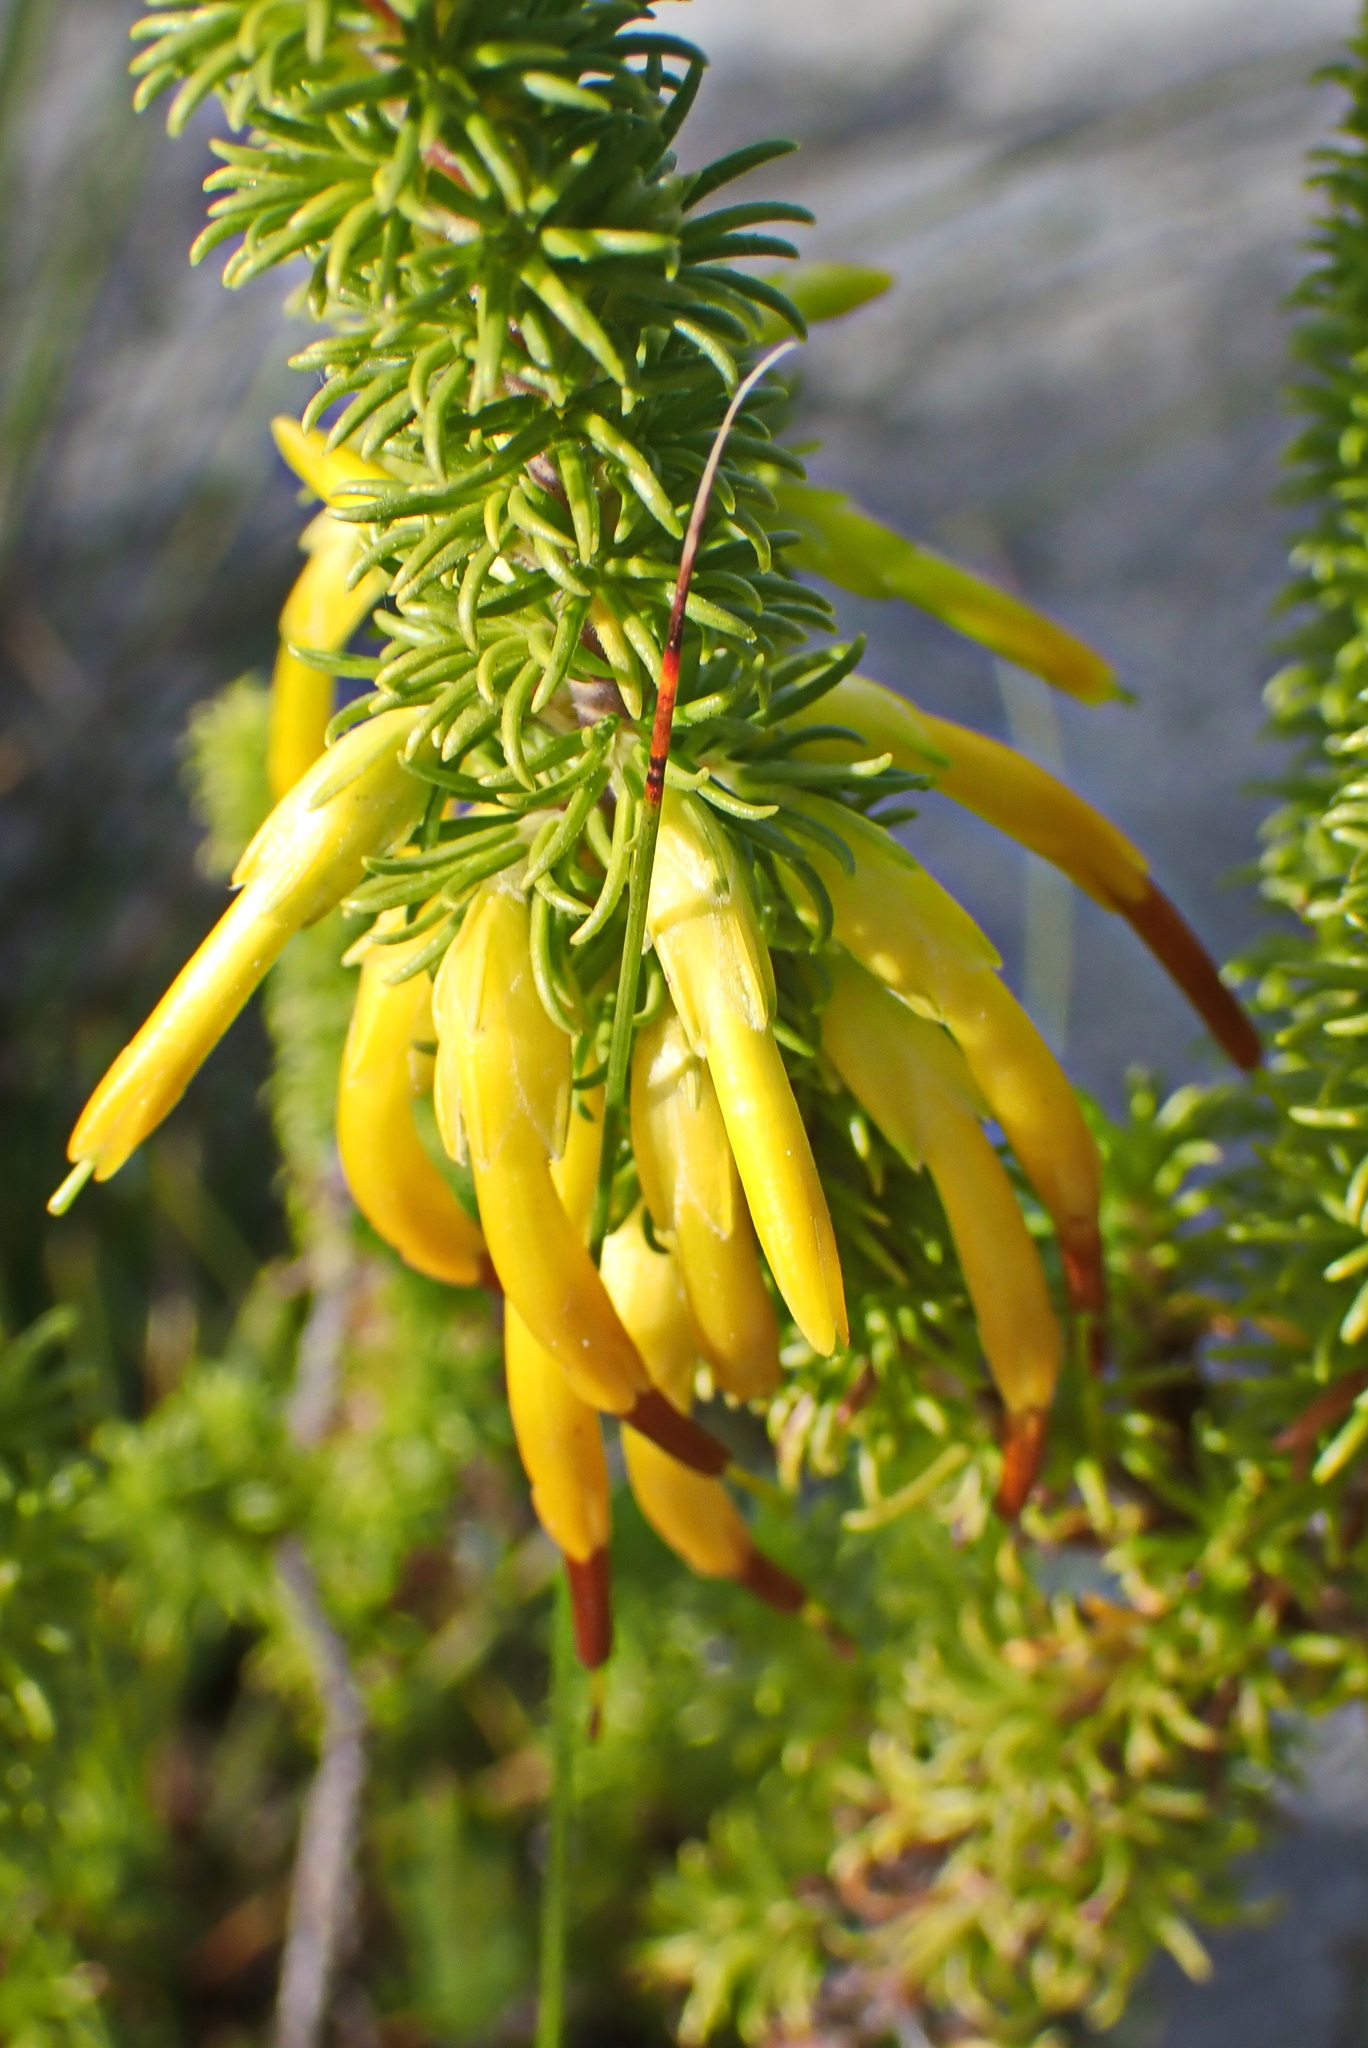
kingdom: Plantae
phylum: Tracheophyta
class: Magnoliopsida
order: Ericales
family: Ericaceae
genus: Erica
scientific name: Erica coccinea
